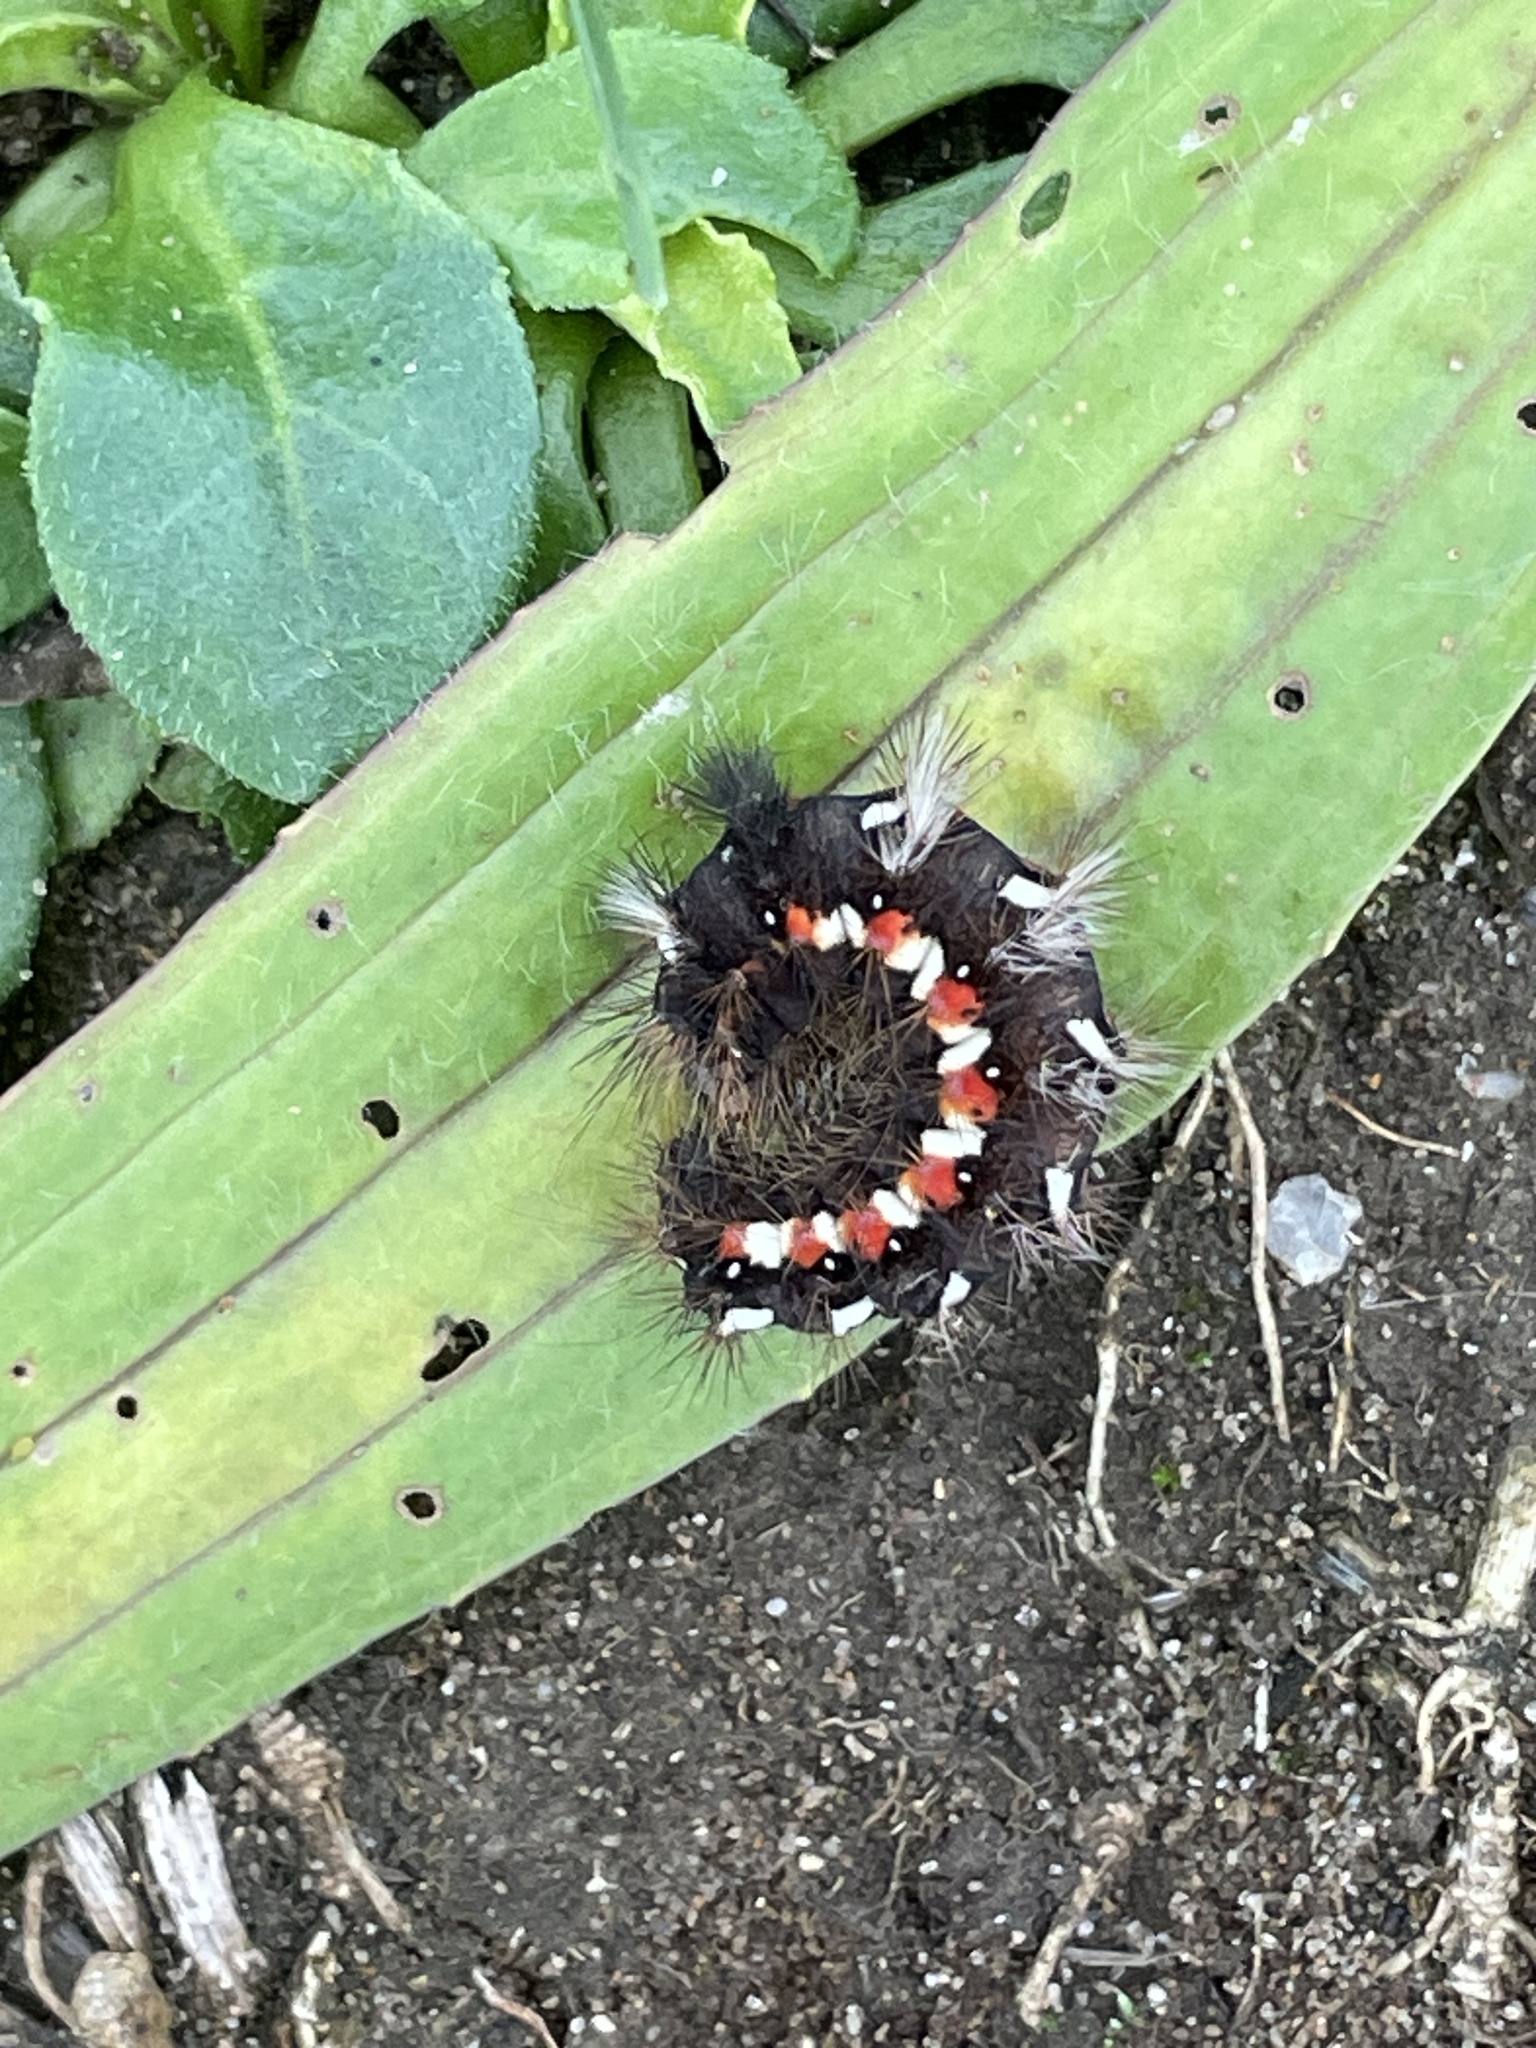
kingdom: Animalia
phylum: Arthropoda
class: Insecta
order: Lepidoptera
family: Noctuidae
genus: Acronicta
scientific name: Acronicta rumicis
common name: Knot grass
